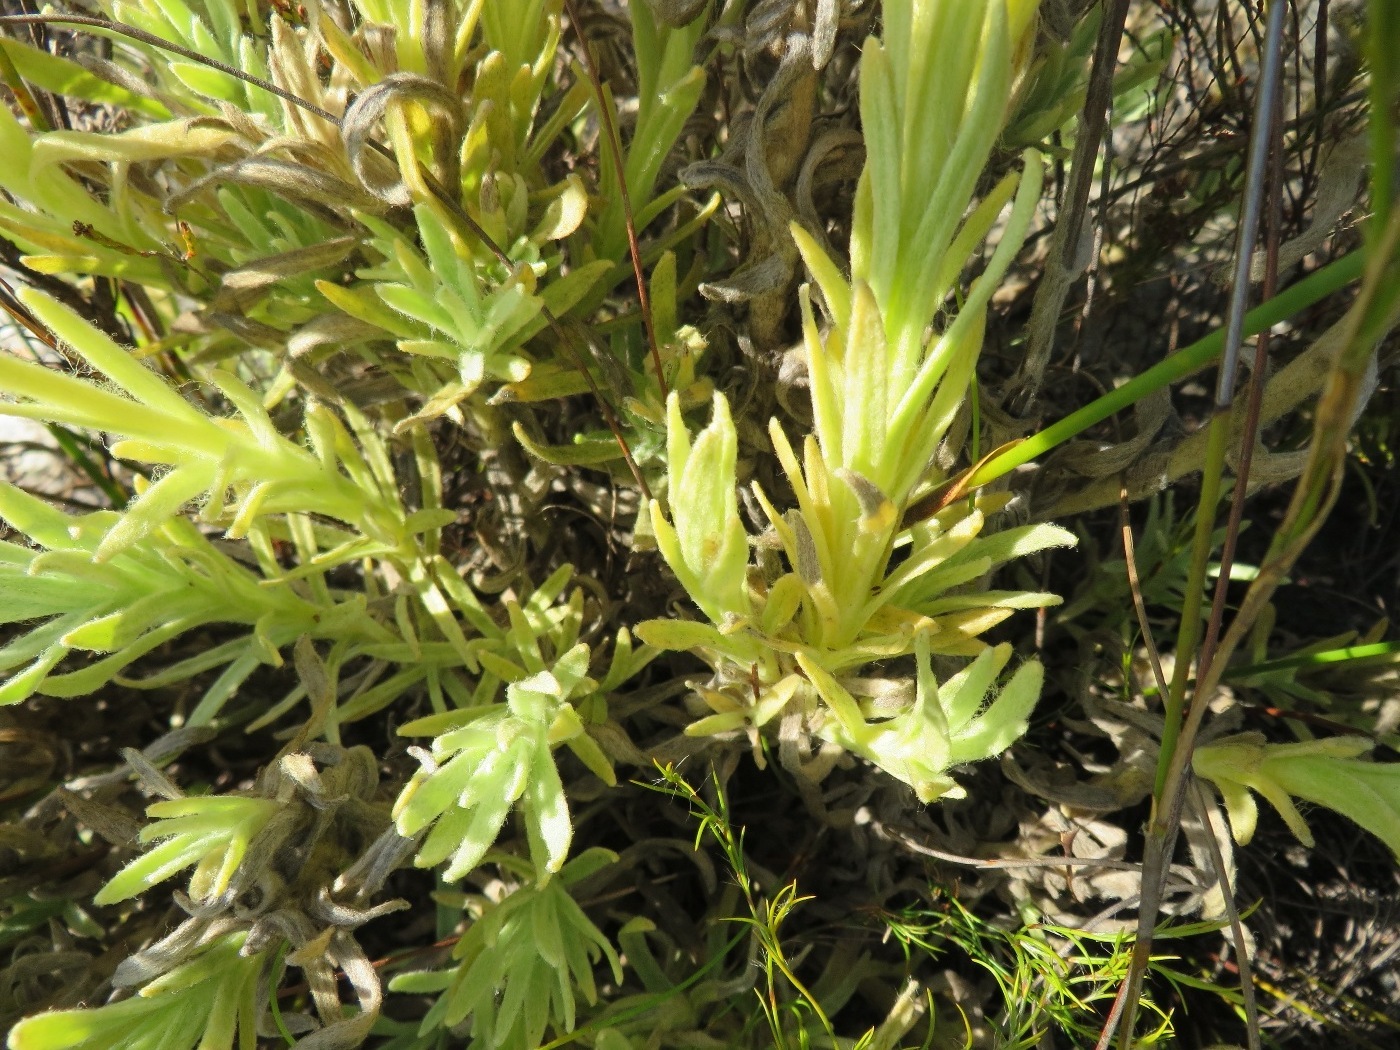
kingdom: Plantae
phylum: Tracheophyta
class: Magnoliopsida
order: Asterales
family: Asteraceae
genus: Syncarpha
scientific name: Syncarpha speciosissima
